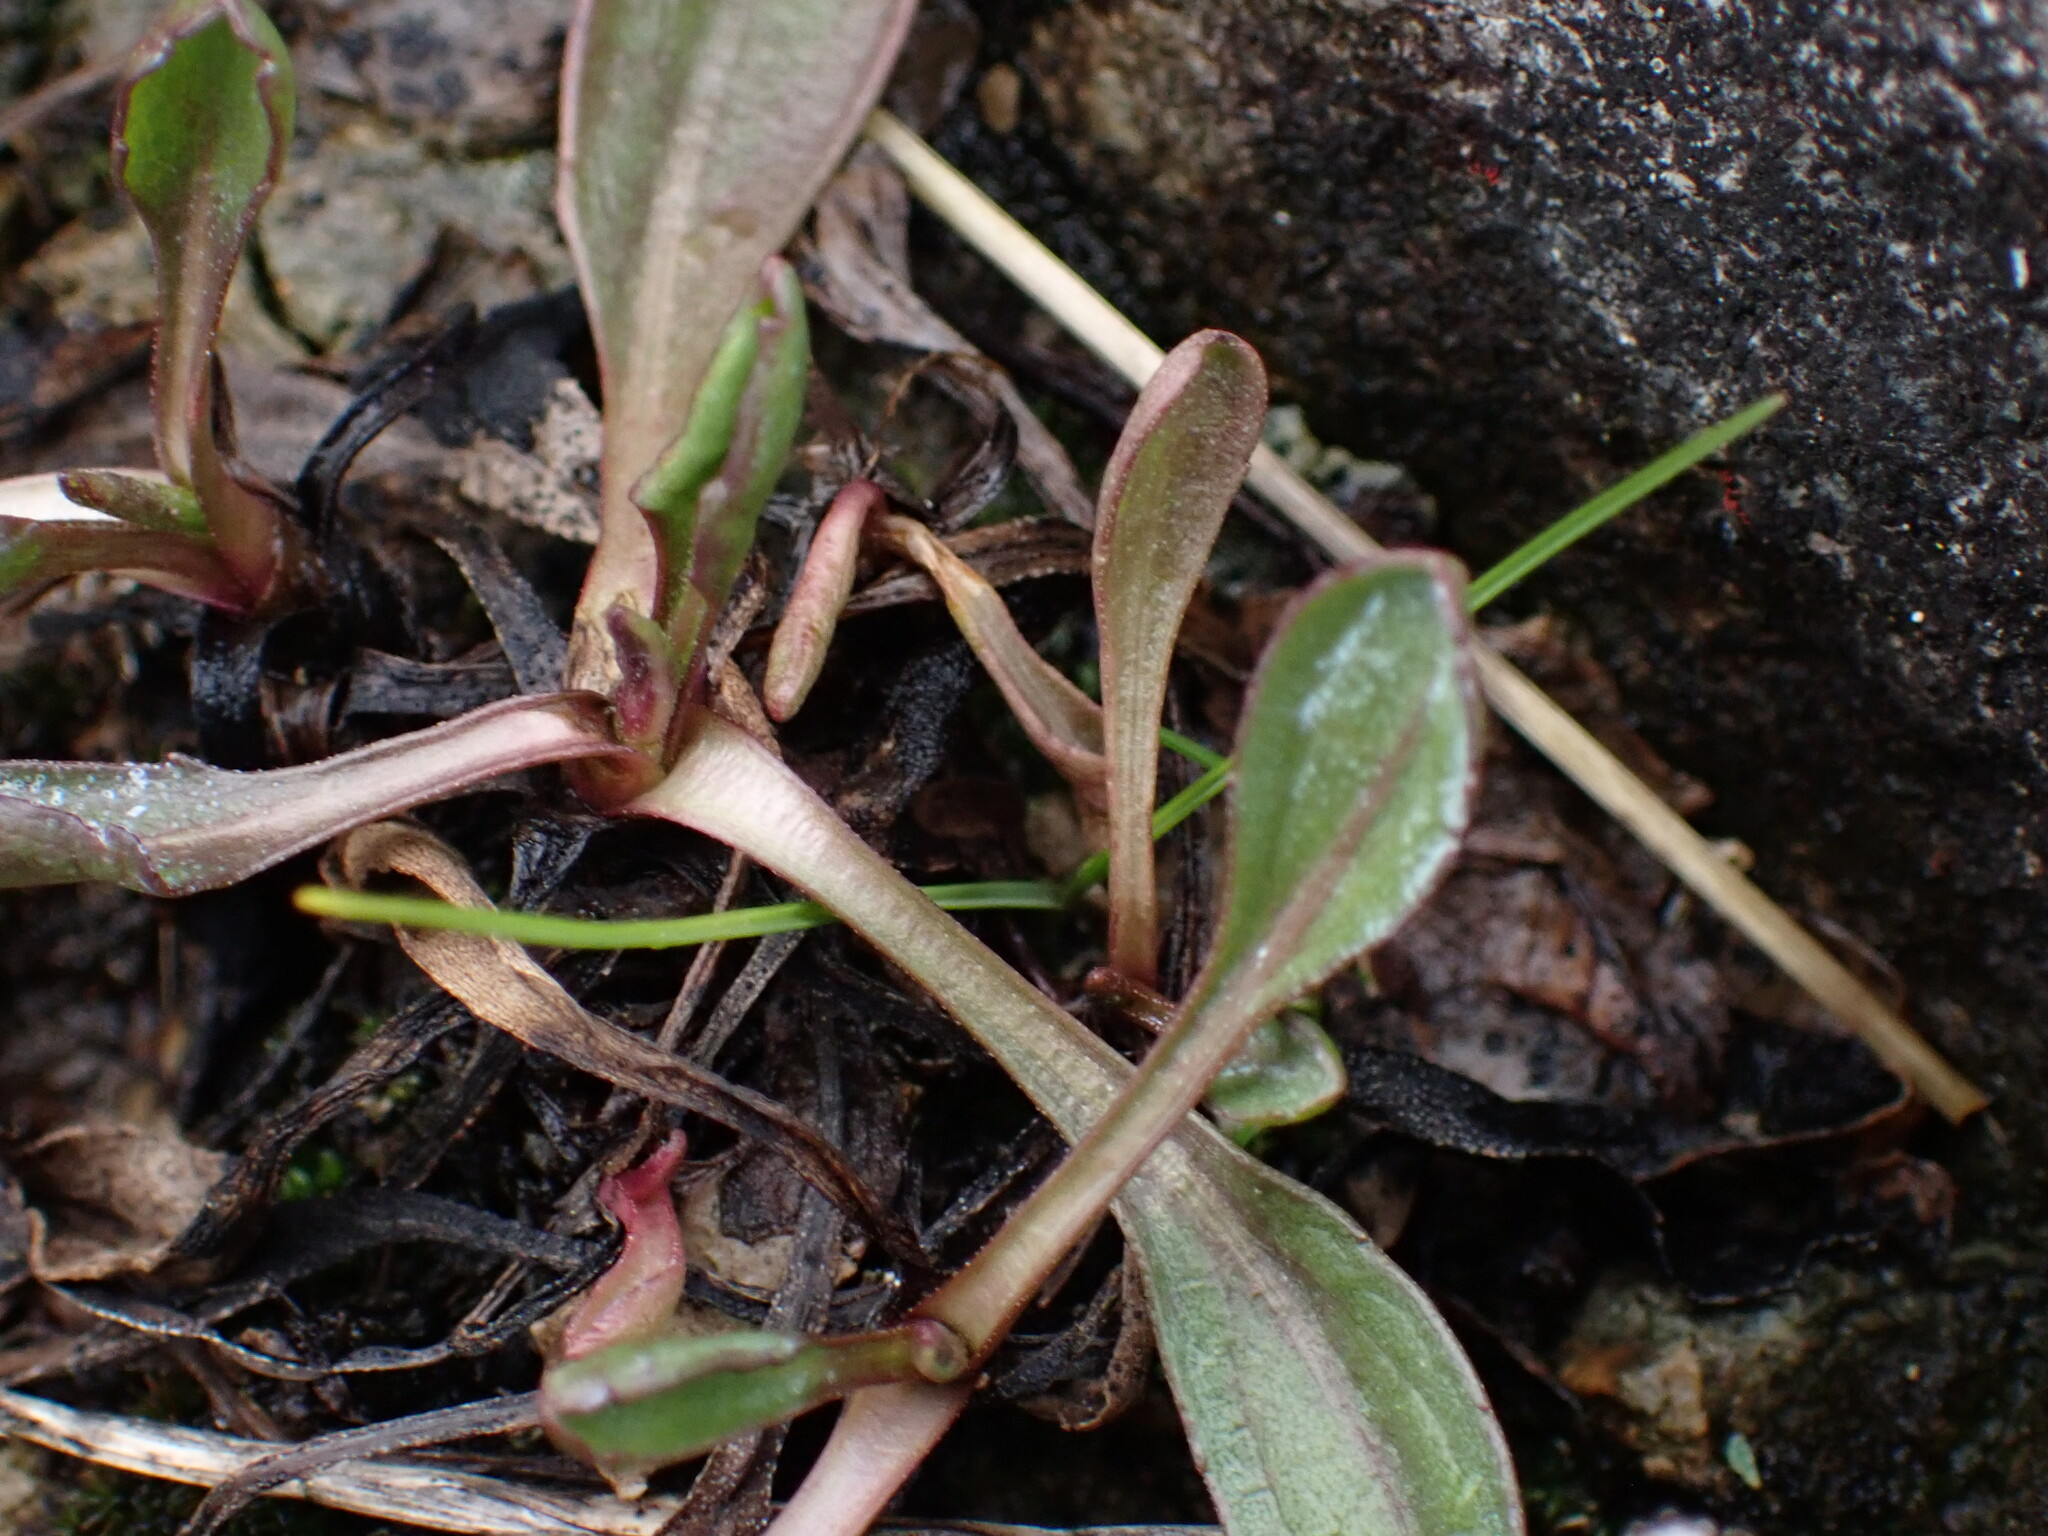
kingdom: Plantae
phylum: Tracheophyta
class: Magnoliopsida
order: Saxifragales
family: Saxifragaceae
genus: Micranthes
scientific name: Micranthes integrifolia
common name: Wholeleaf saxifrage
